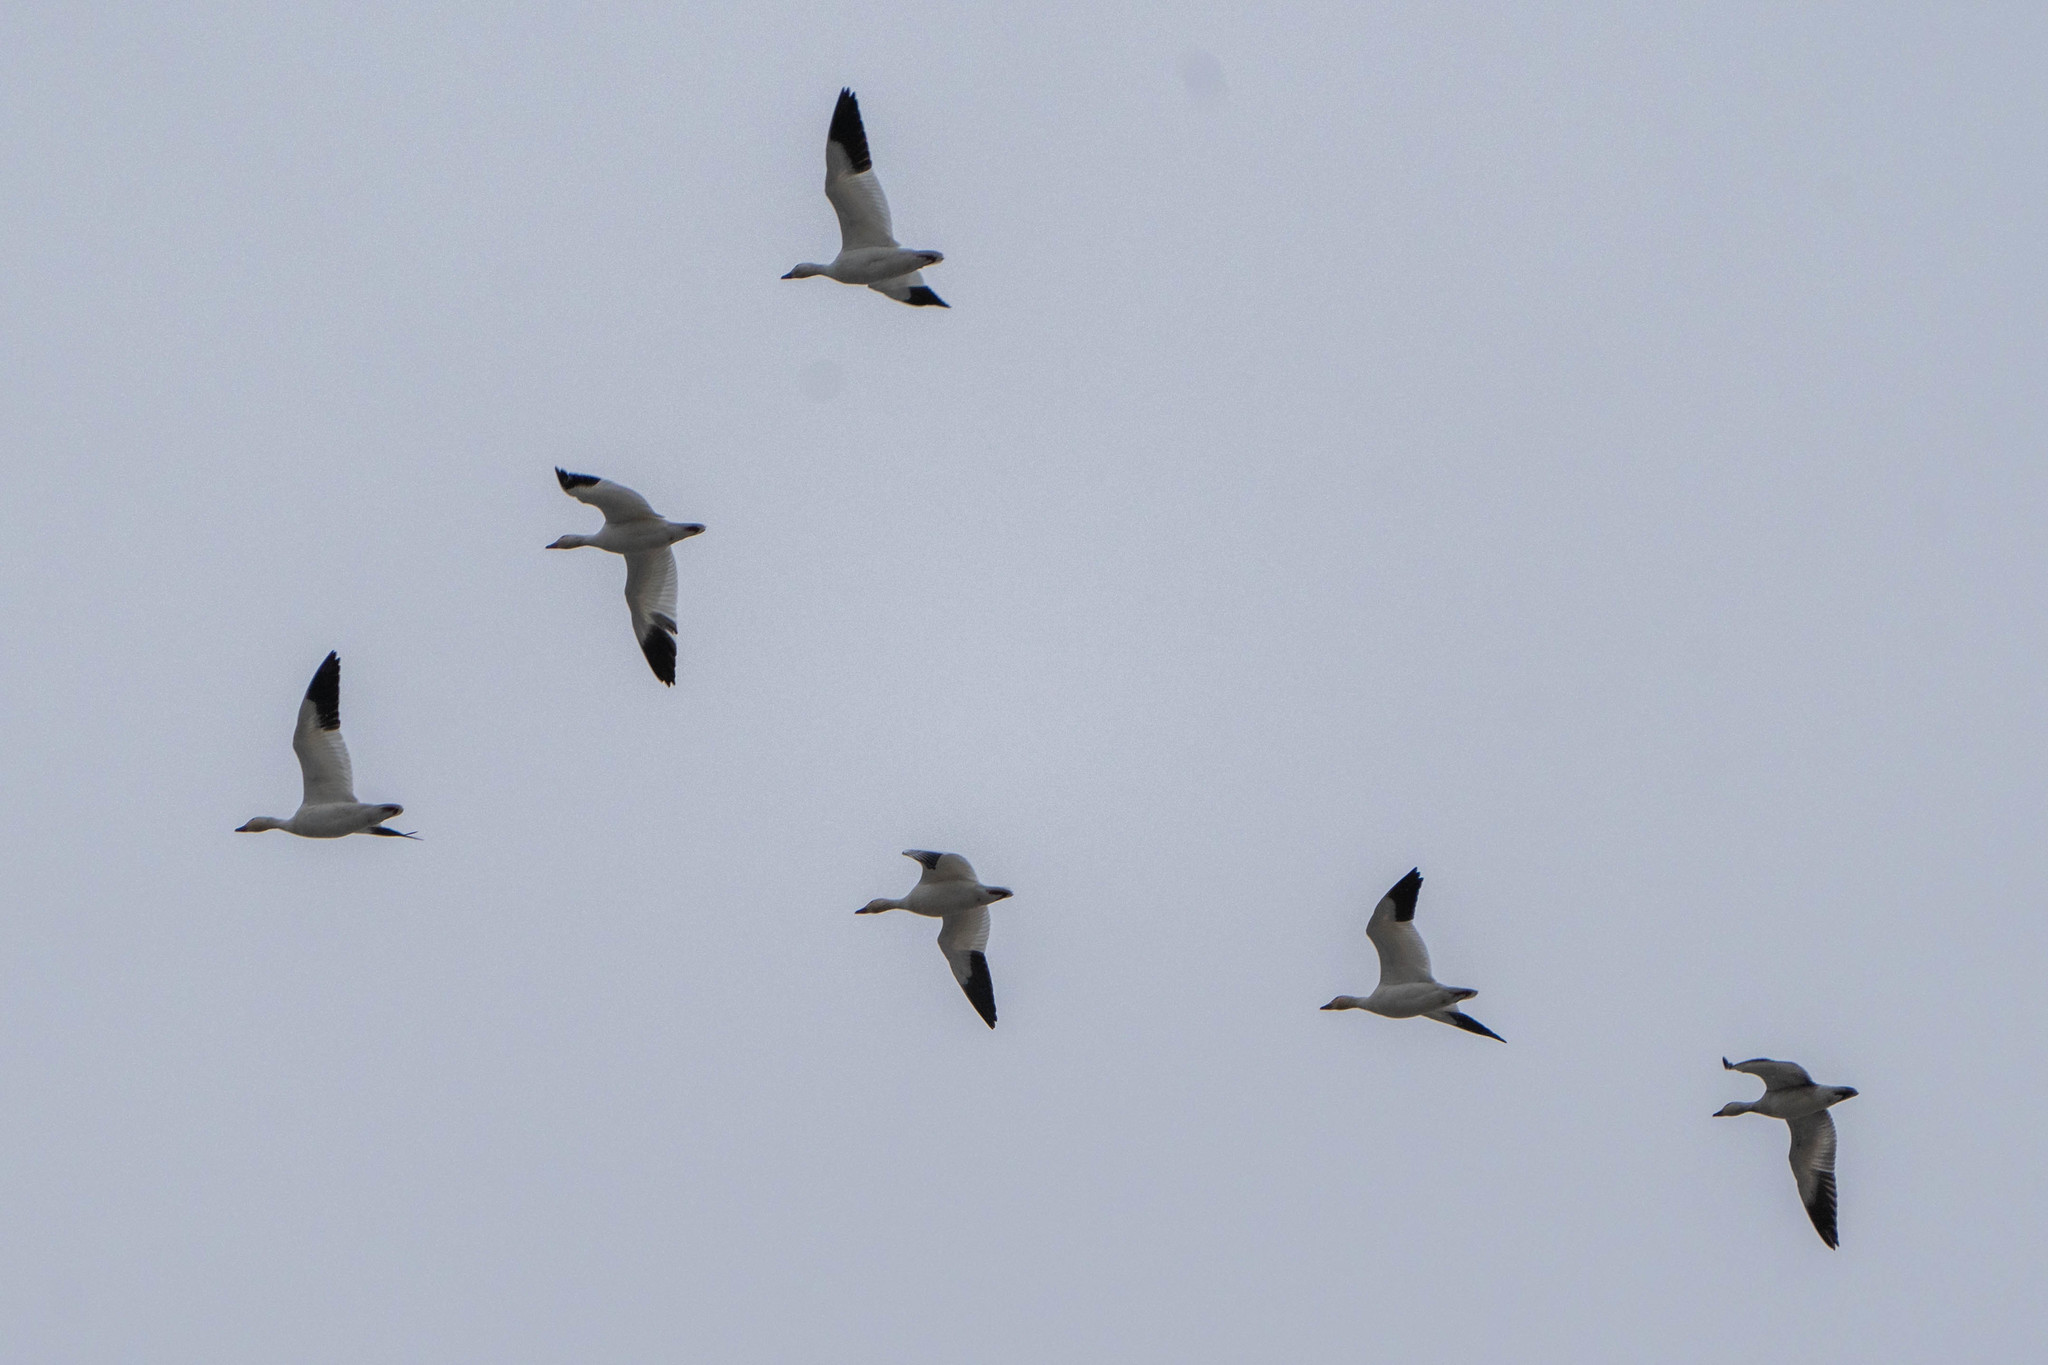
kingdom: Animalia
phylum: Chordata
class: Aves
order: Anseriformes
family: Anatidae
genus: Anser
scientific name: Anser caerulescens
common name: Snow goose
